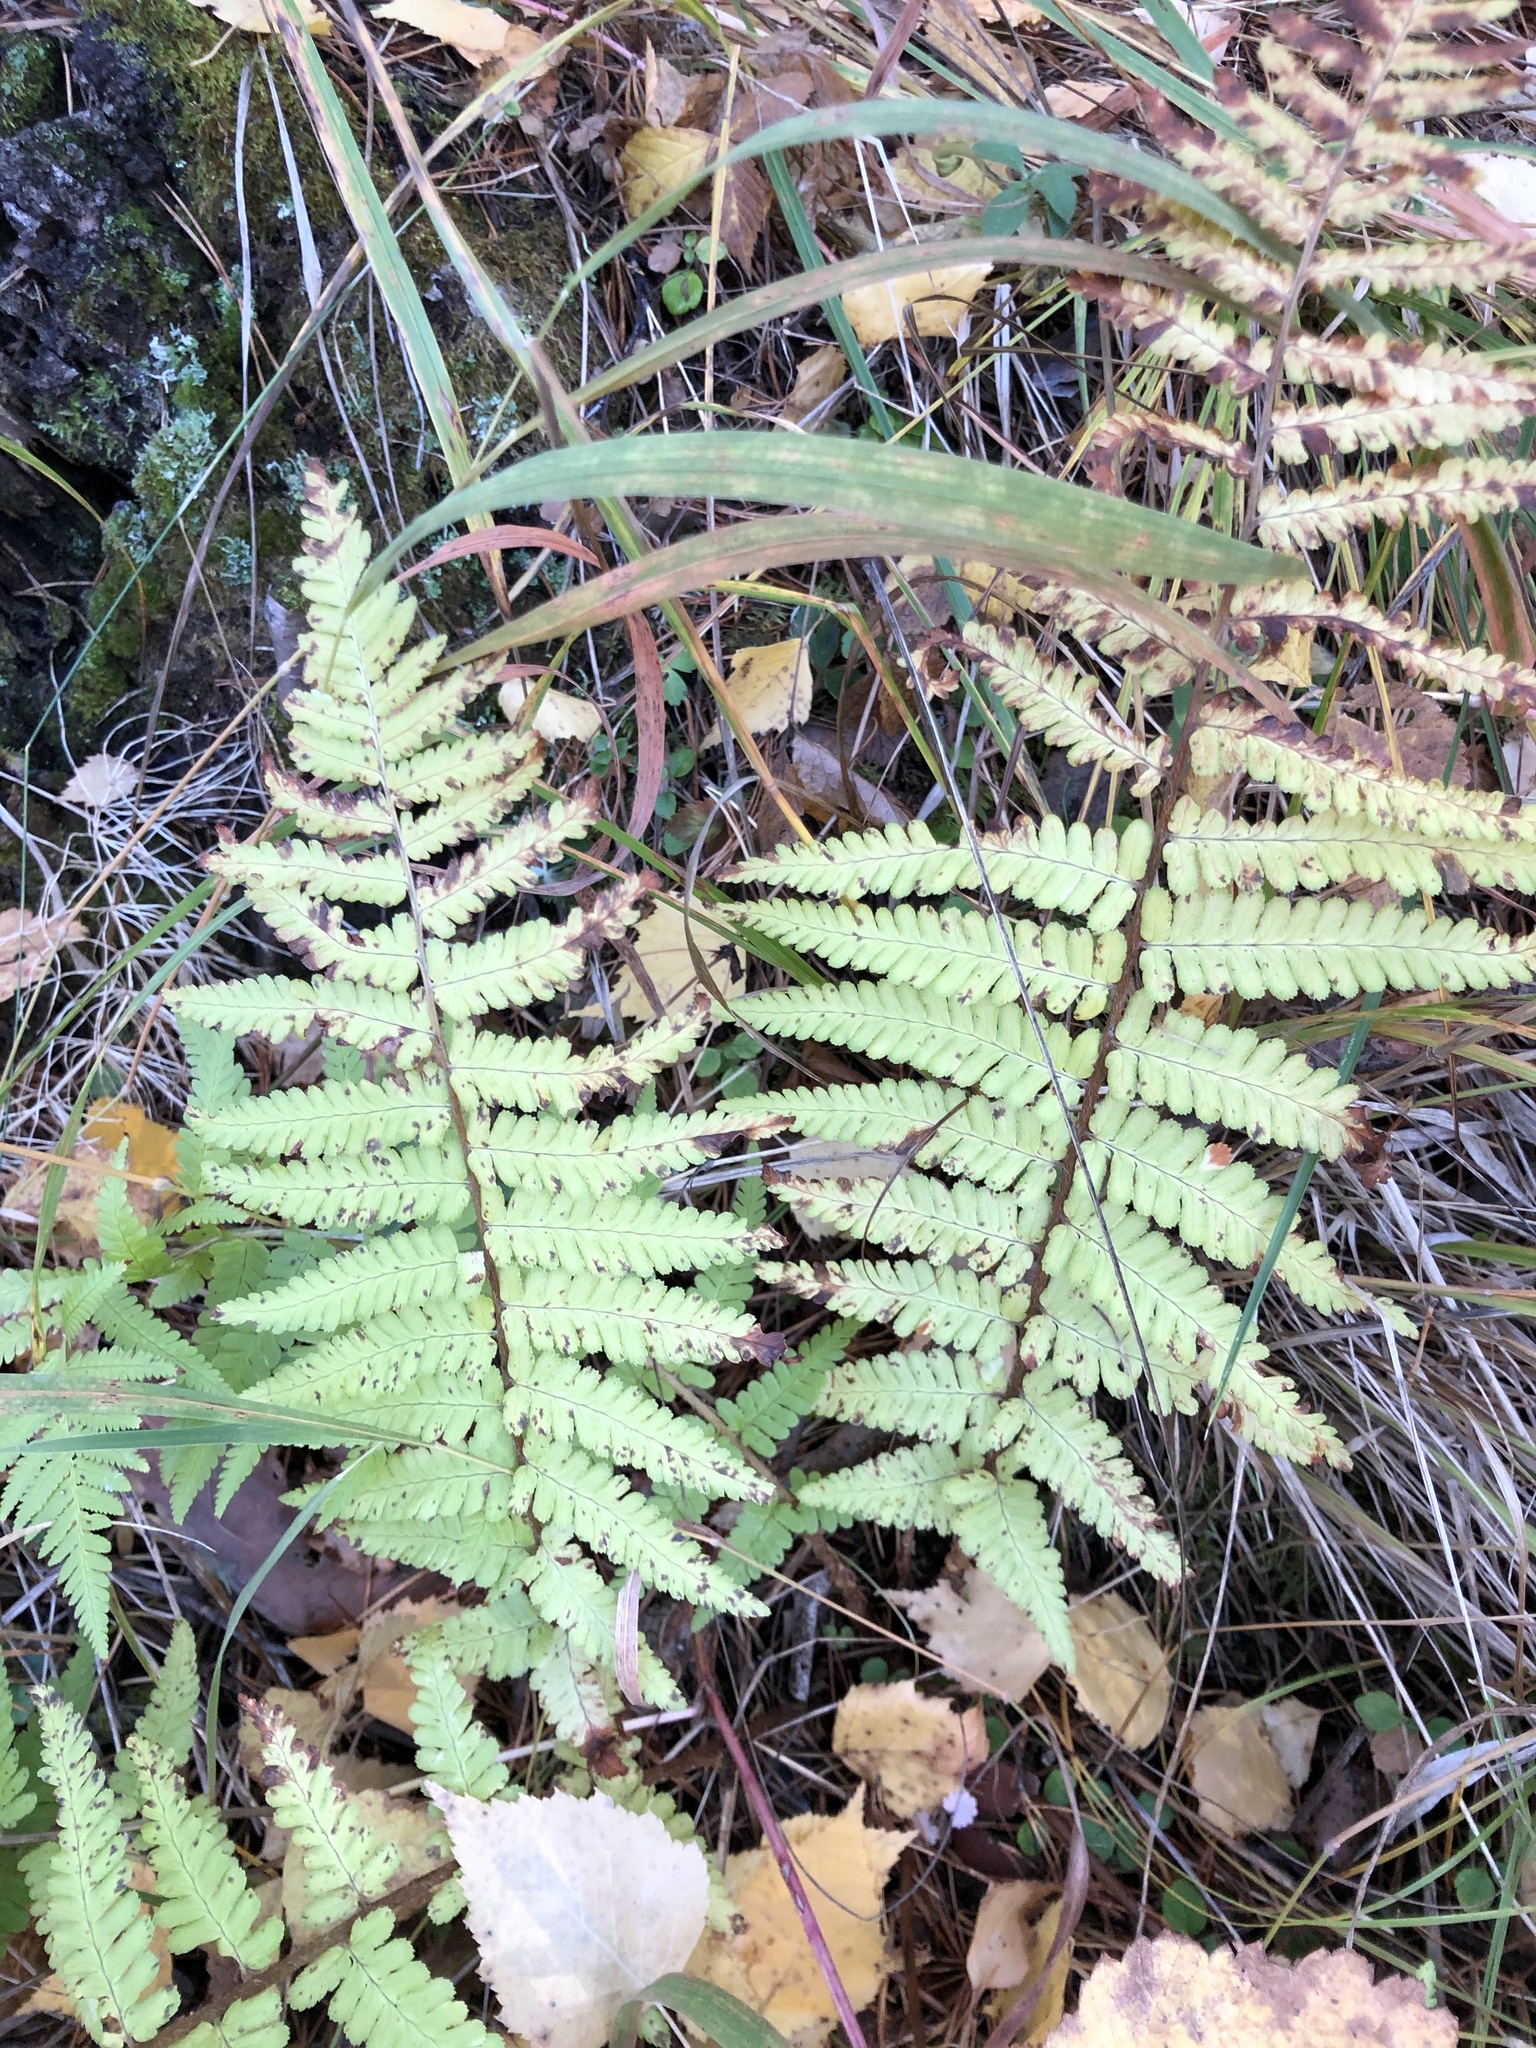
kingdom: Plantae
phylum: Tracheophyta
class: Polypodiopsida
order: Polypodiales
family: Dryopteridaceae
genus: Dryopteris
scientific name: Dryopteris filix-mas
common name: Male fern
